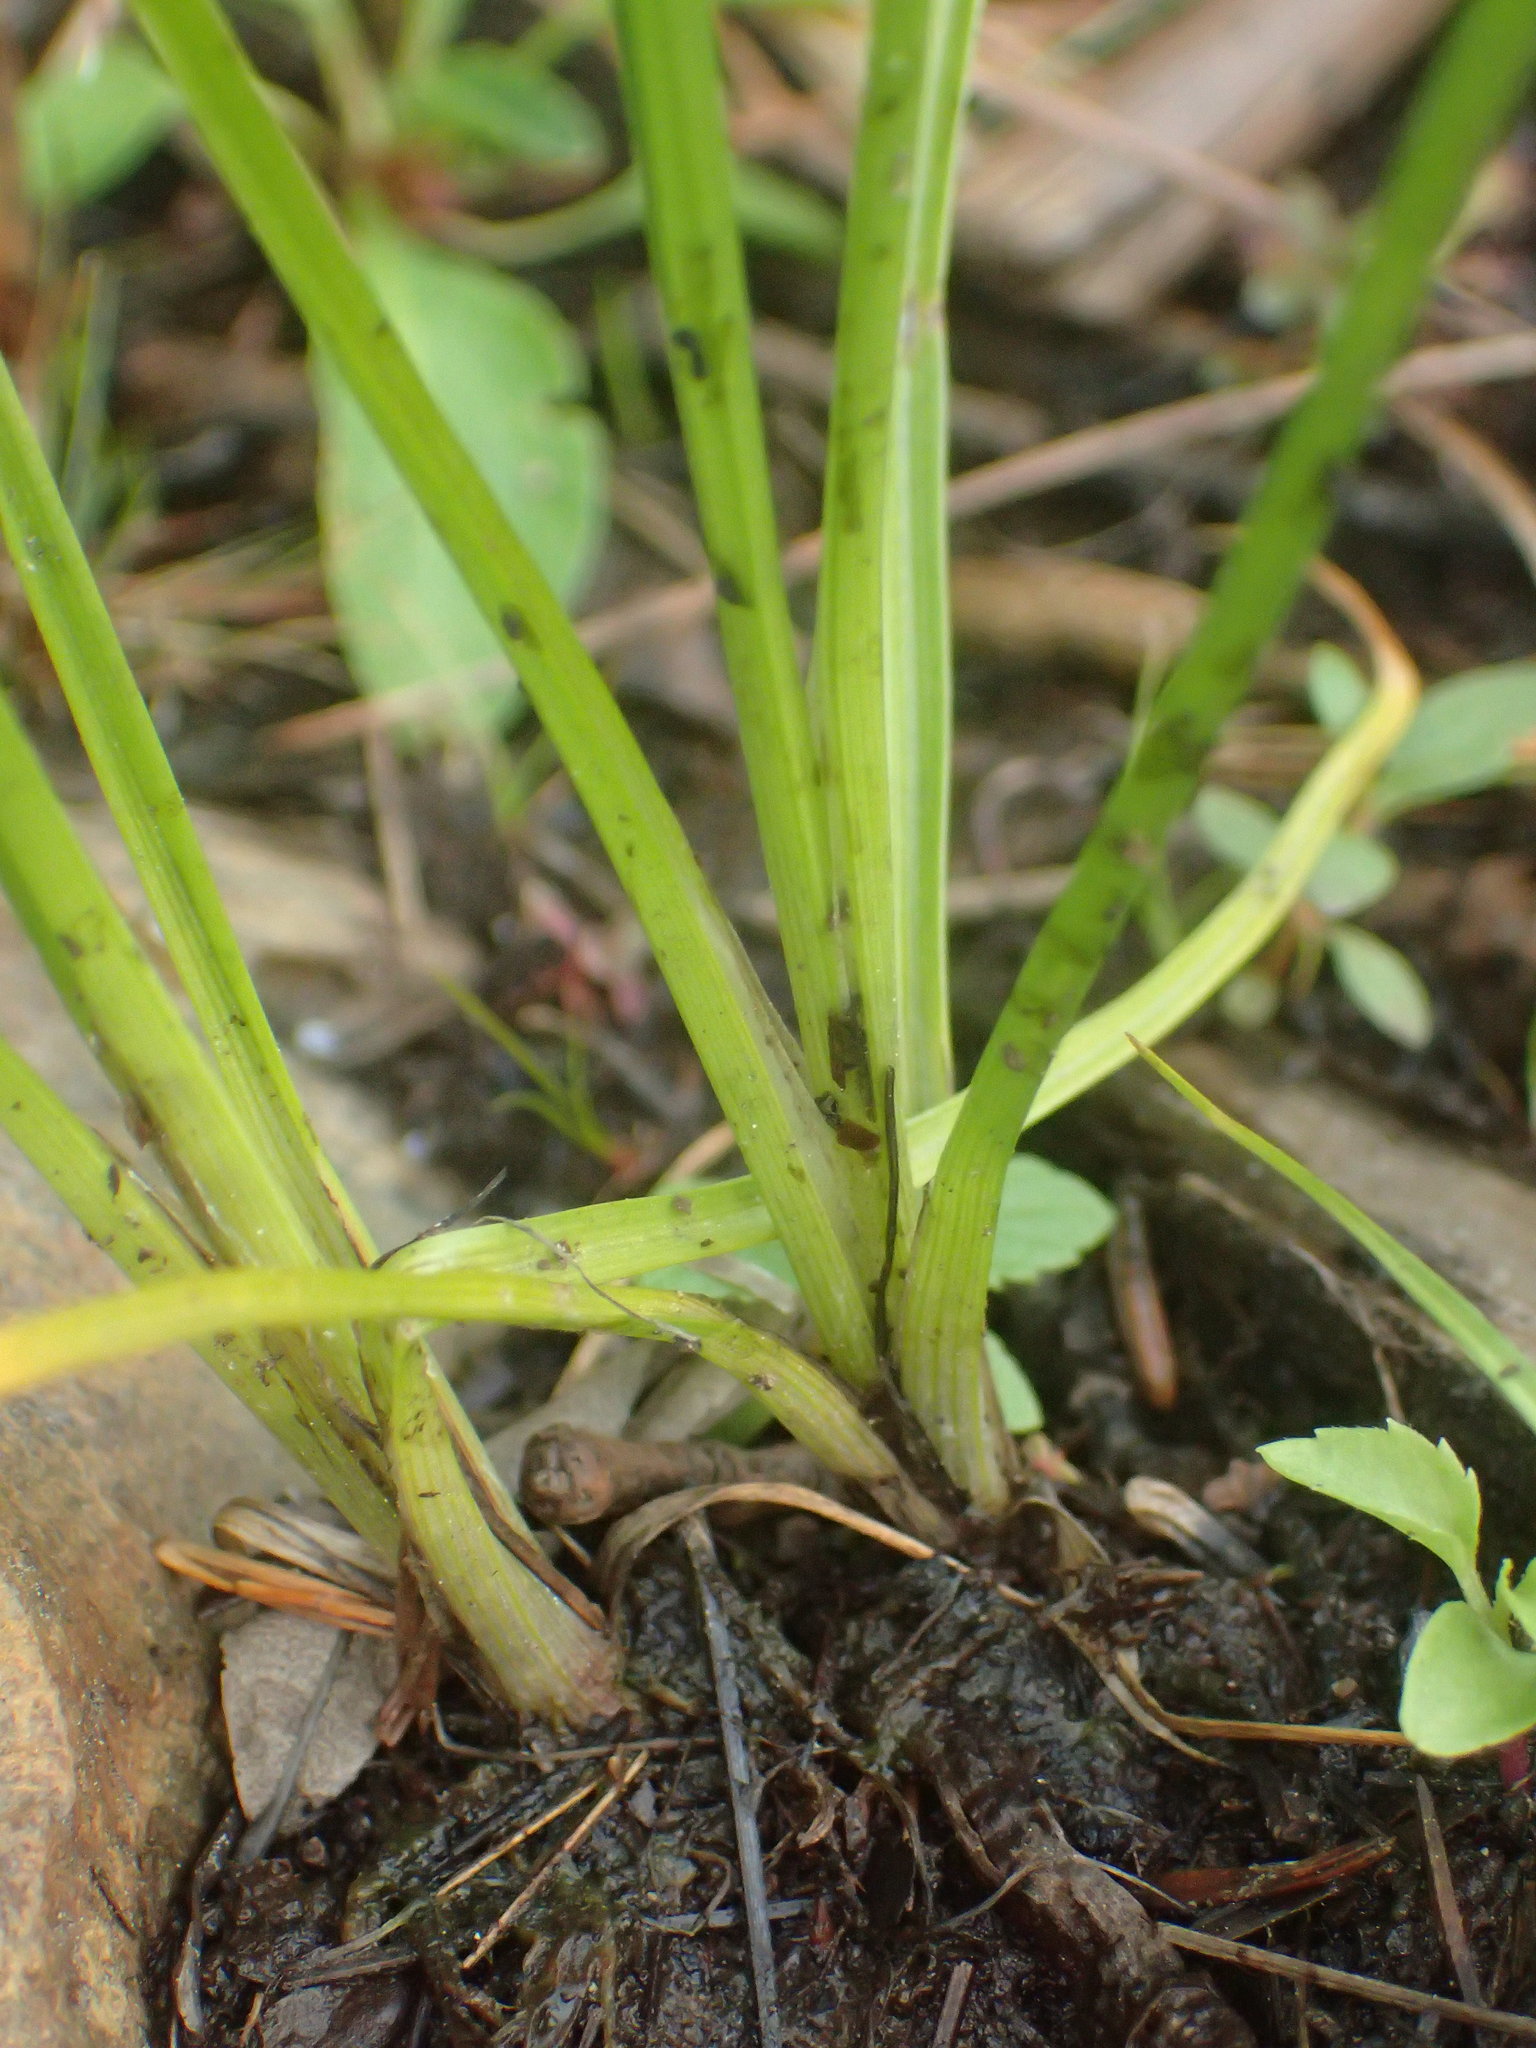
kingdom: Plantae
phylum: Tracheophyta
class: Liliopsida
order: Poales
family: Cyperaceae
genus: Cyperus
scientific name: Cyperus dentatus
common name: Dentate umbrella sedge
